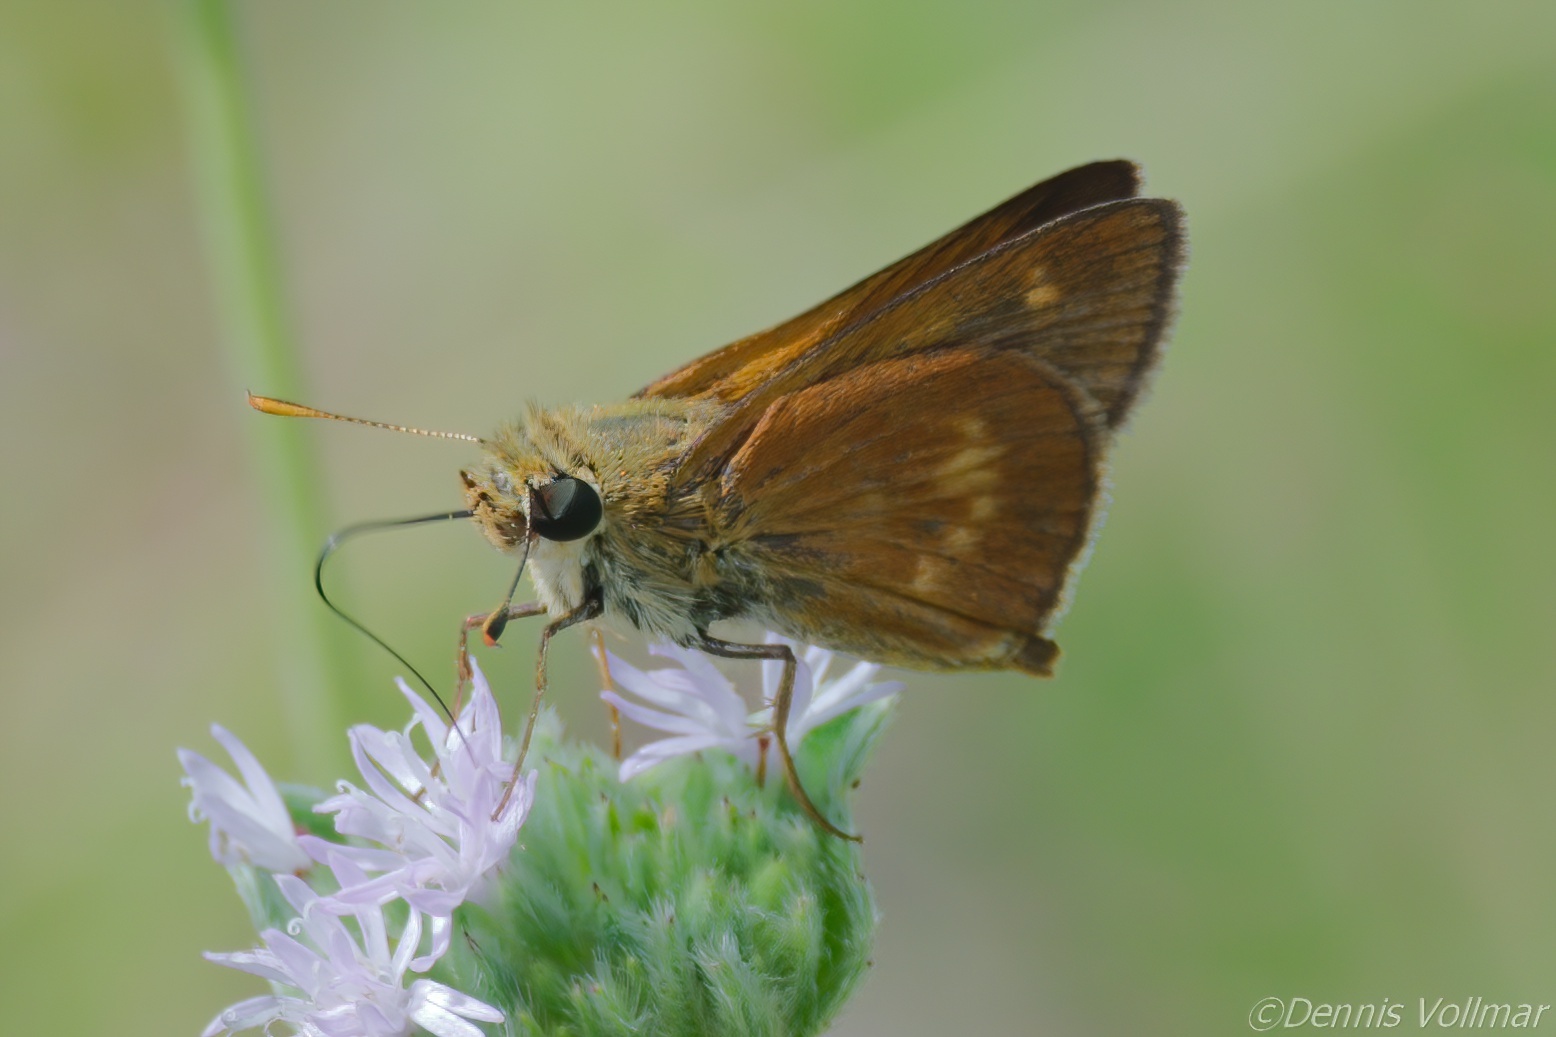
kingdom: Animalia
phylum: Arthropoda
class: Insecta
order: Lepidoptera
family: Hesperiidae
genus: Polites
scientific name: Polites otho
